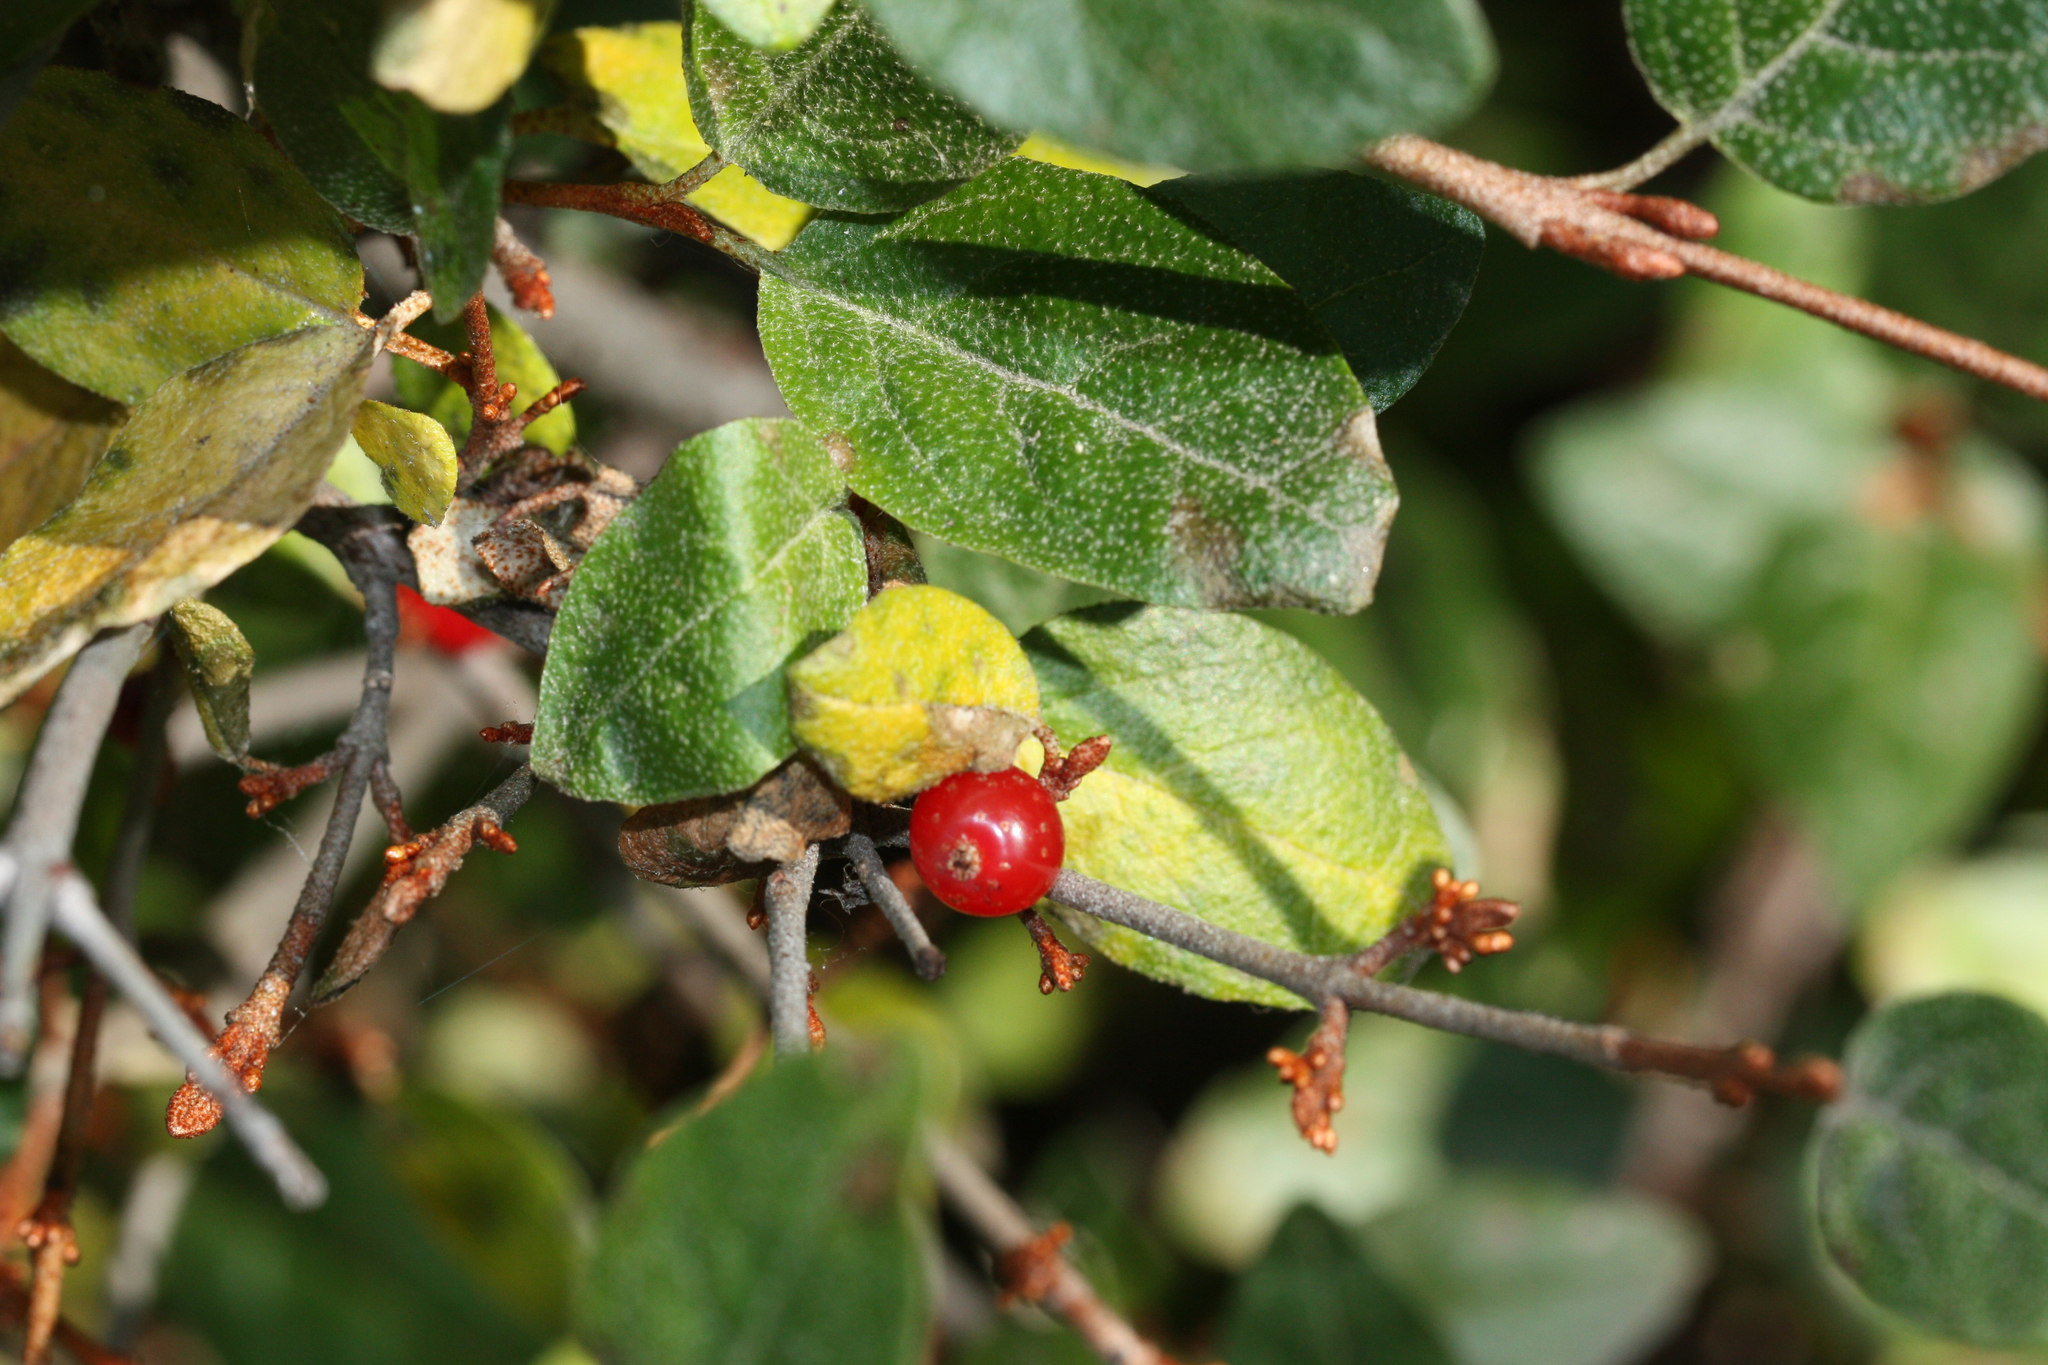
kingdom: Plantae
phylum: Tracheophyta
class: Magnoliopsida
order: Rosales
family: Elaeagnaceae
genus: Shepherdia
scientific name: Shepherdia canadensis
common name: Soapberry
